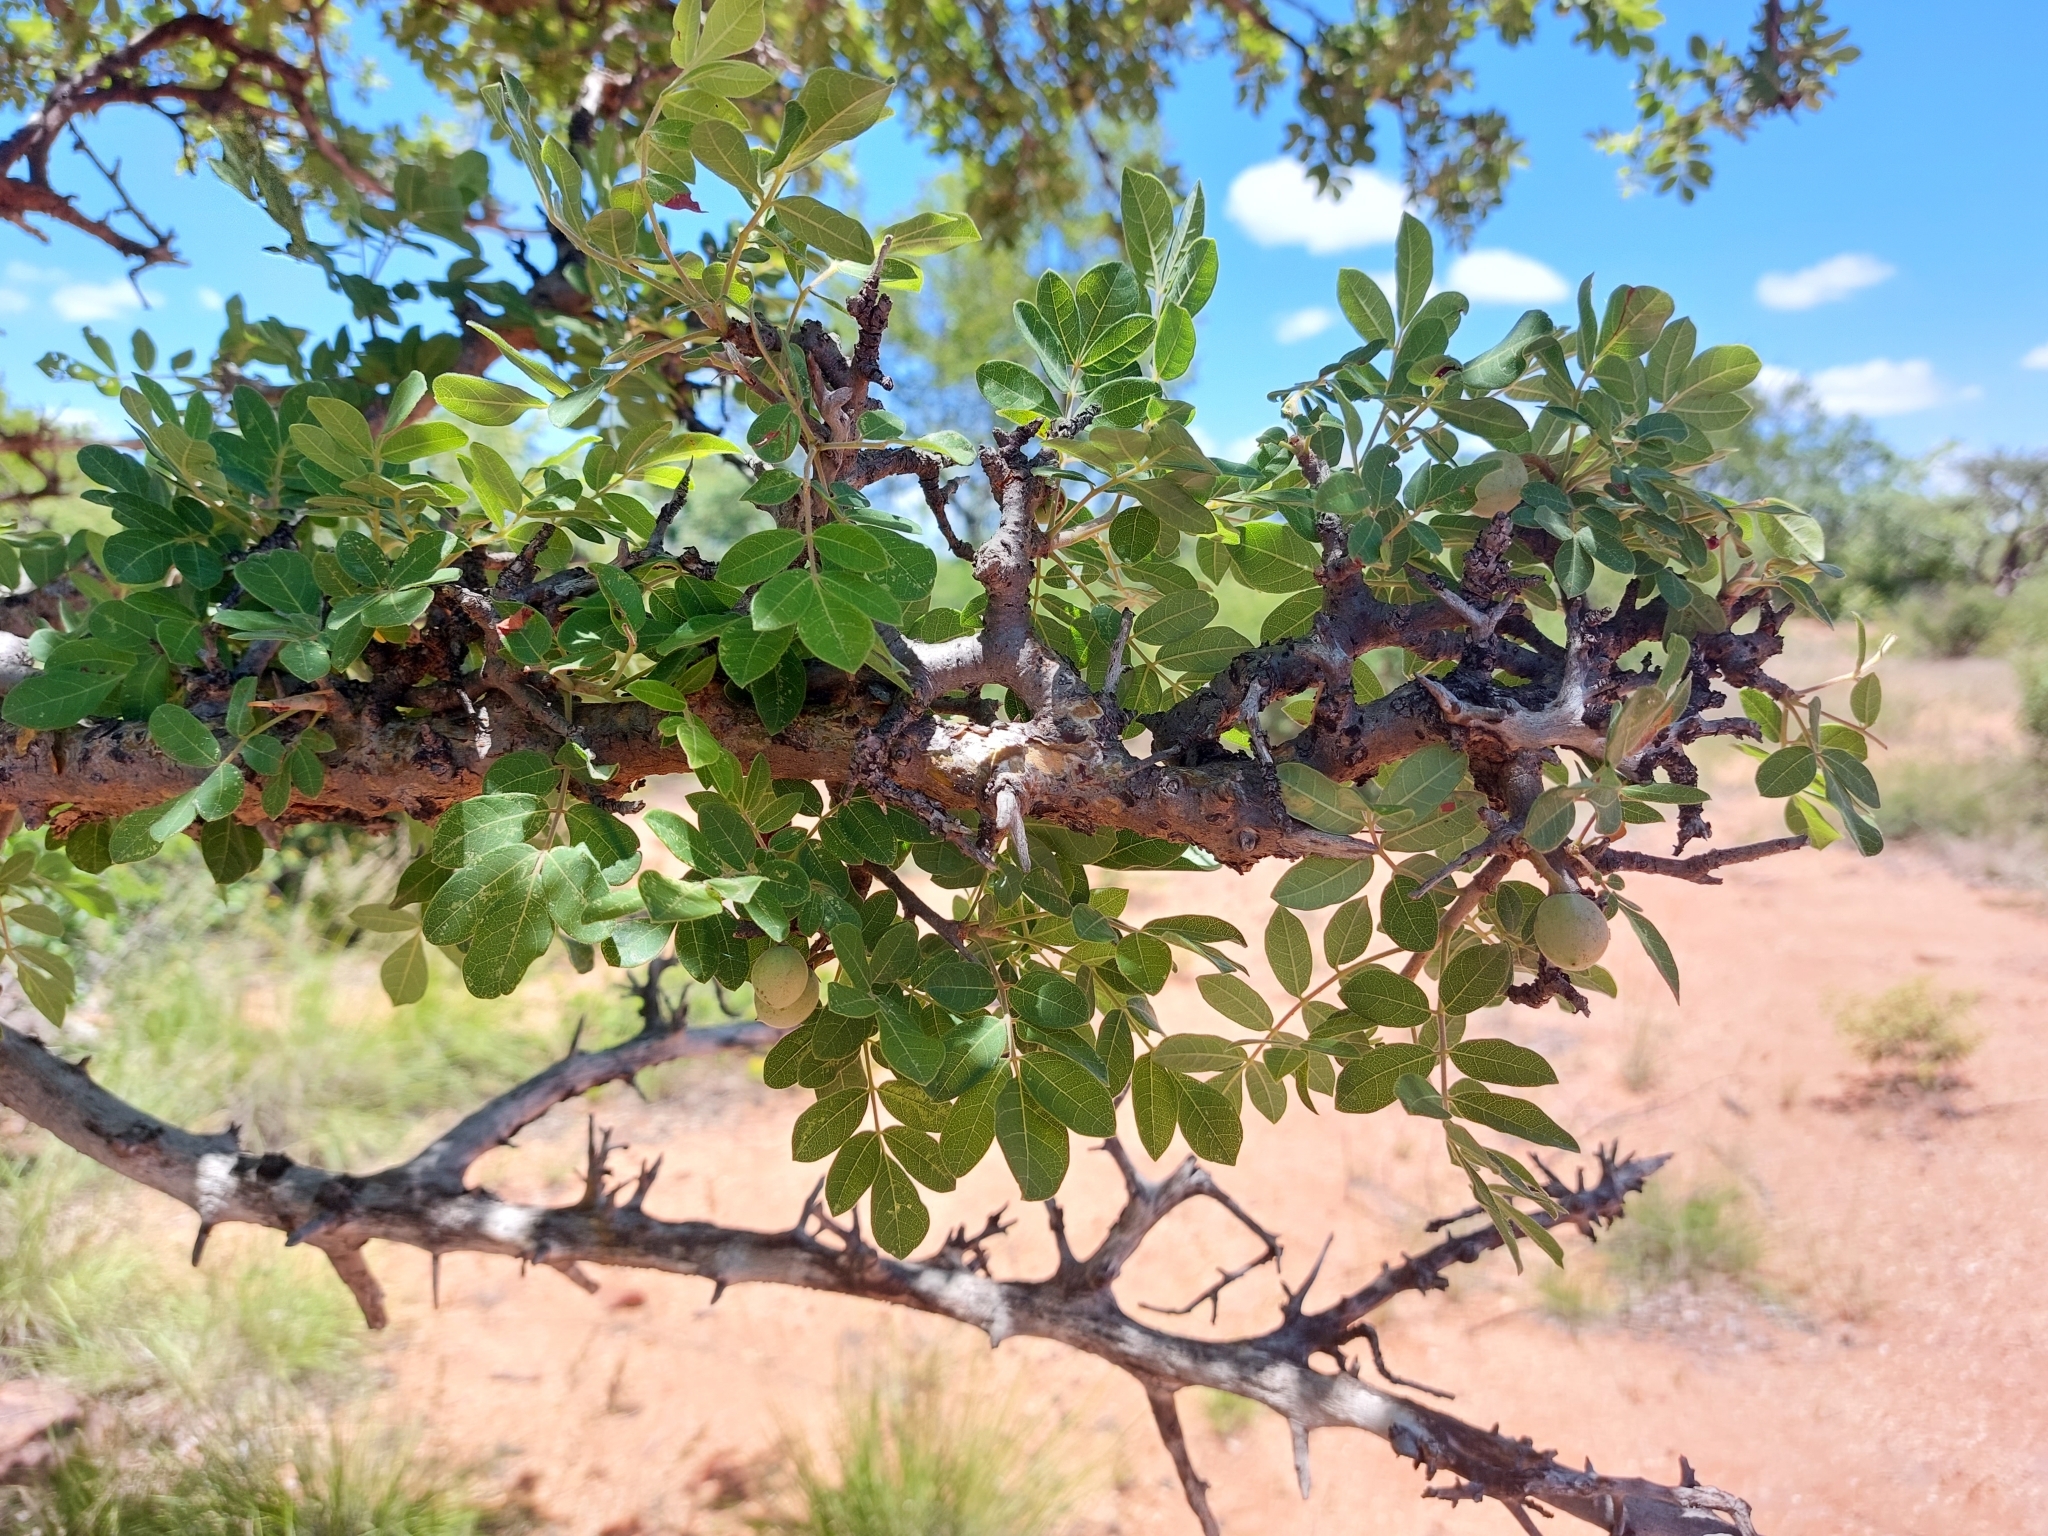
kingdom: Plantae
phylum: Tracheophyta
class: Magnoliopsida
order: Sapindales
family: Burseraceae
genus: Commiphora
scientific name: Commiphora mollis
